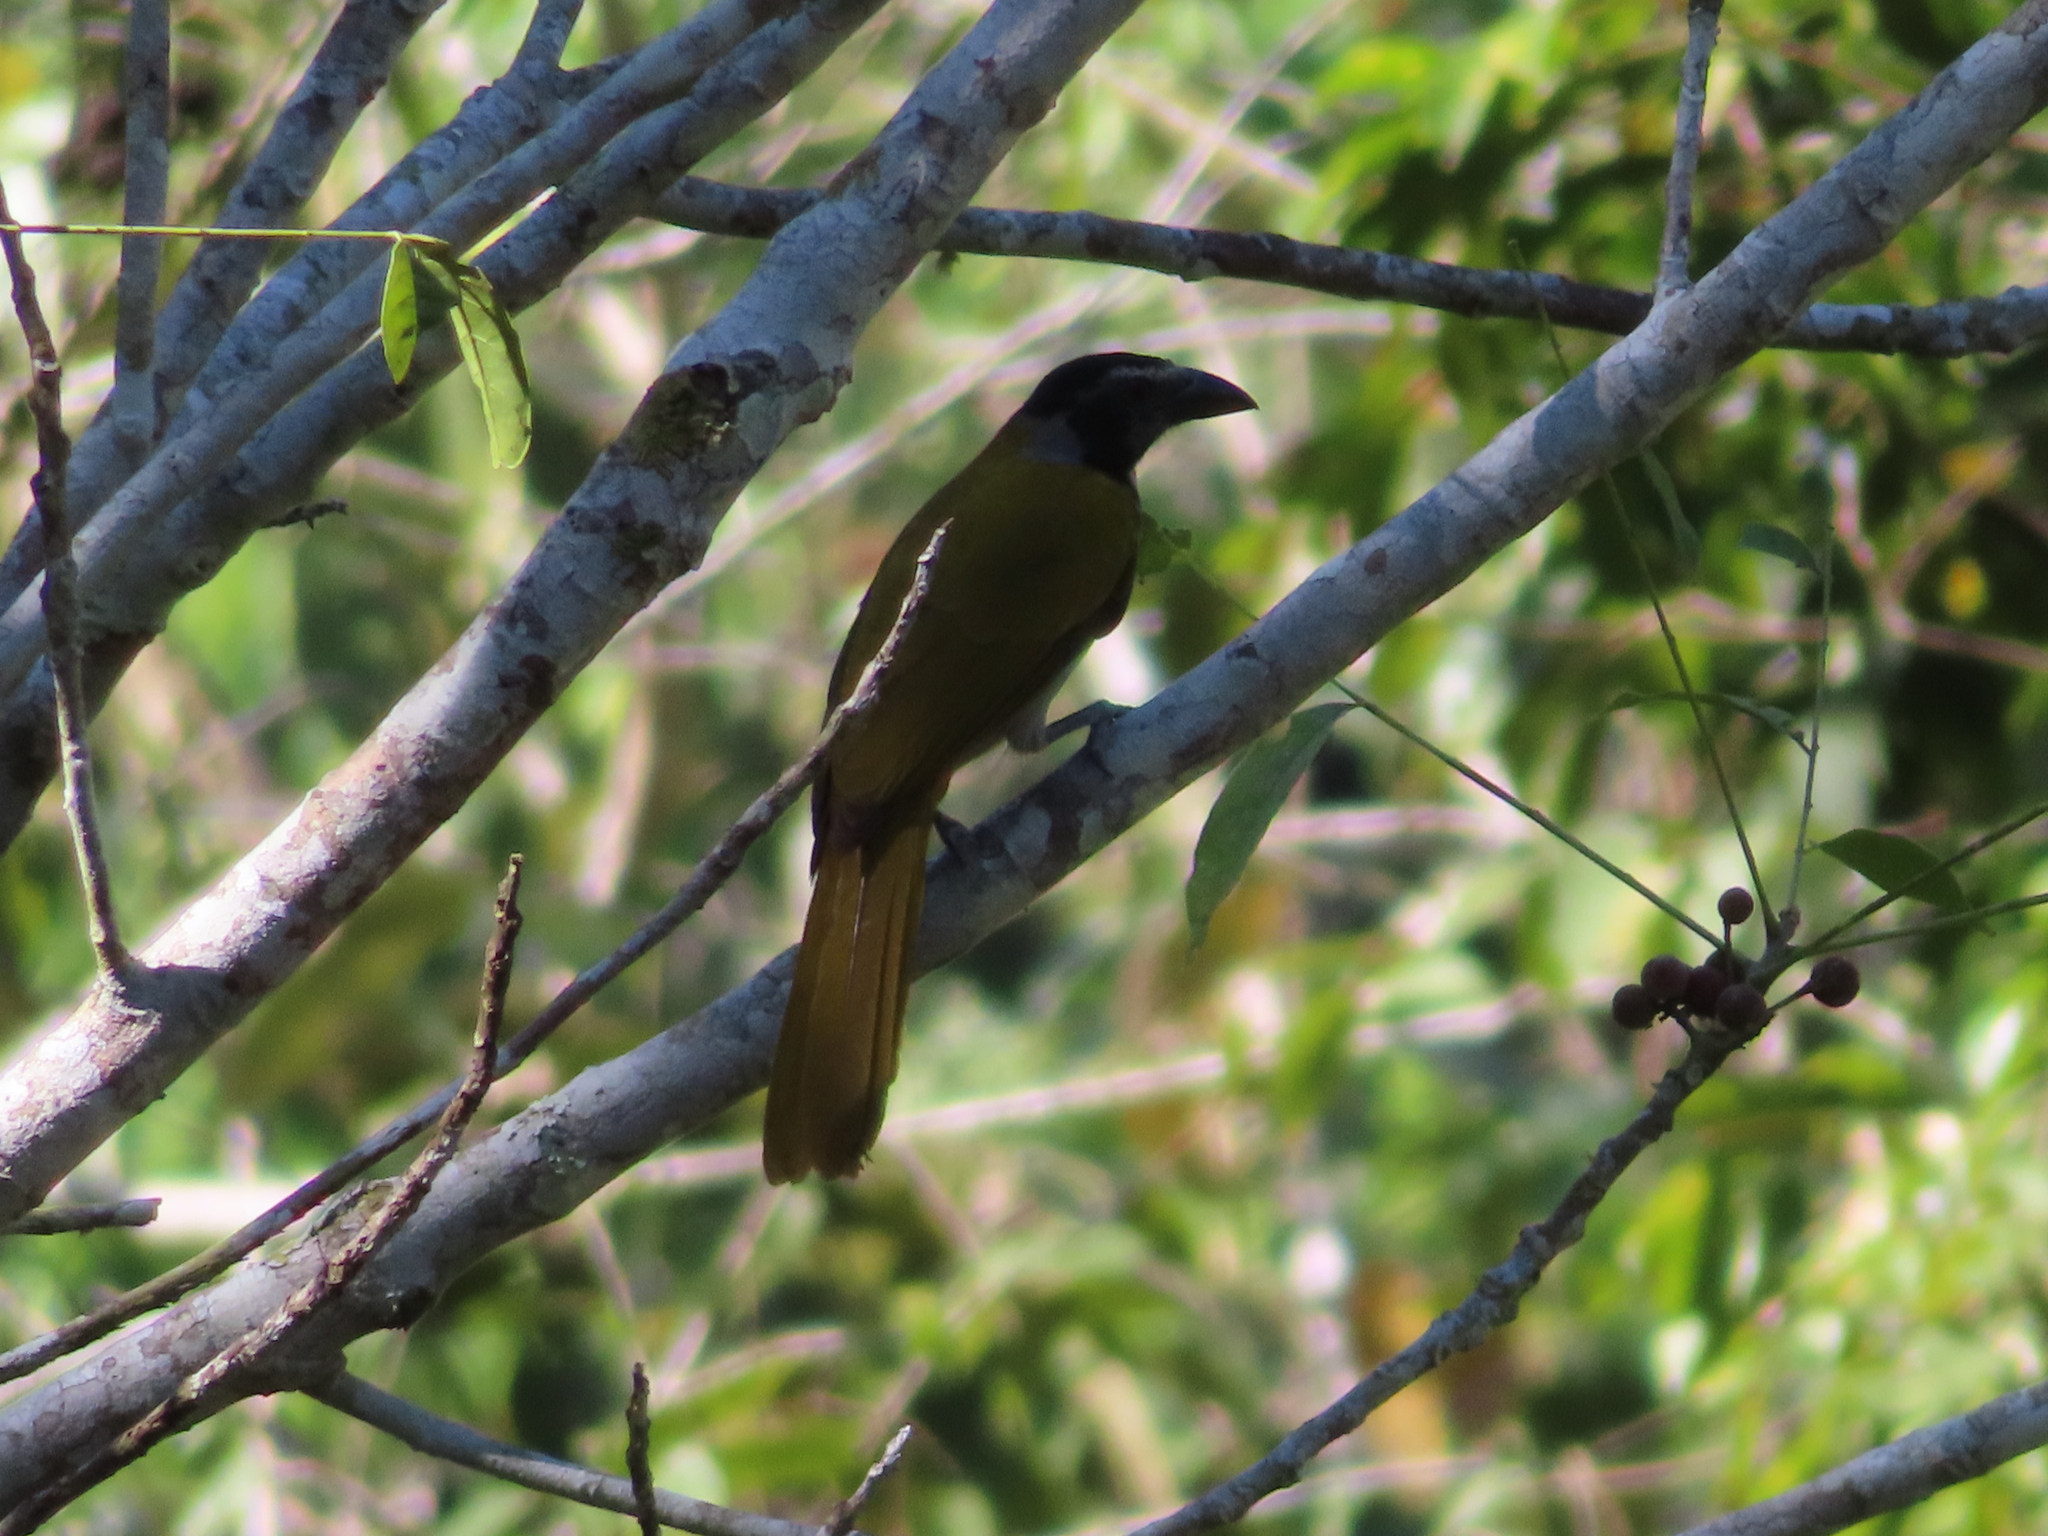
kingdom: Animalia
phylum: Chordata
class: Aves
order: Passeriformes
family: Thraupidae
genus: Saltator
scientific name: Saltator atriceps
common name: Black-headed saltator
